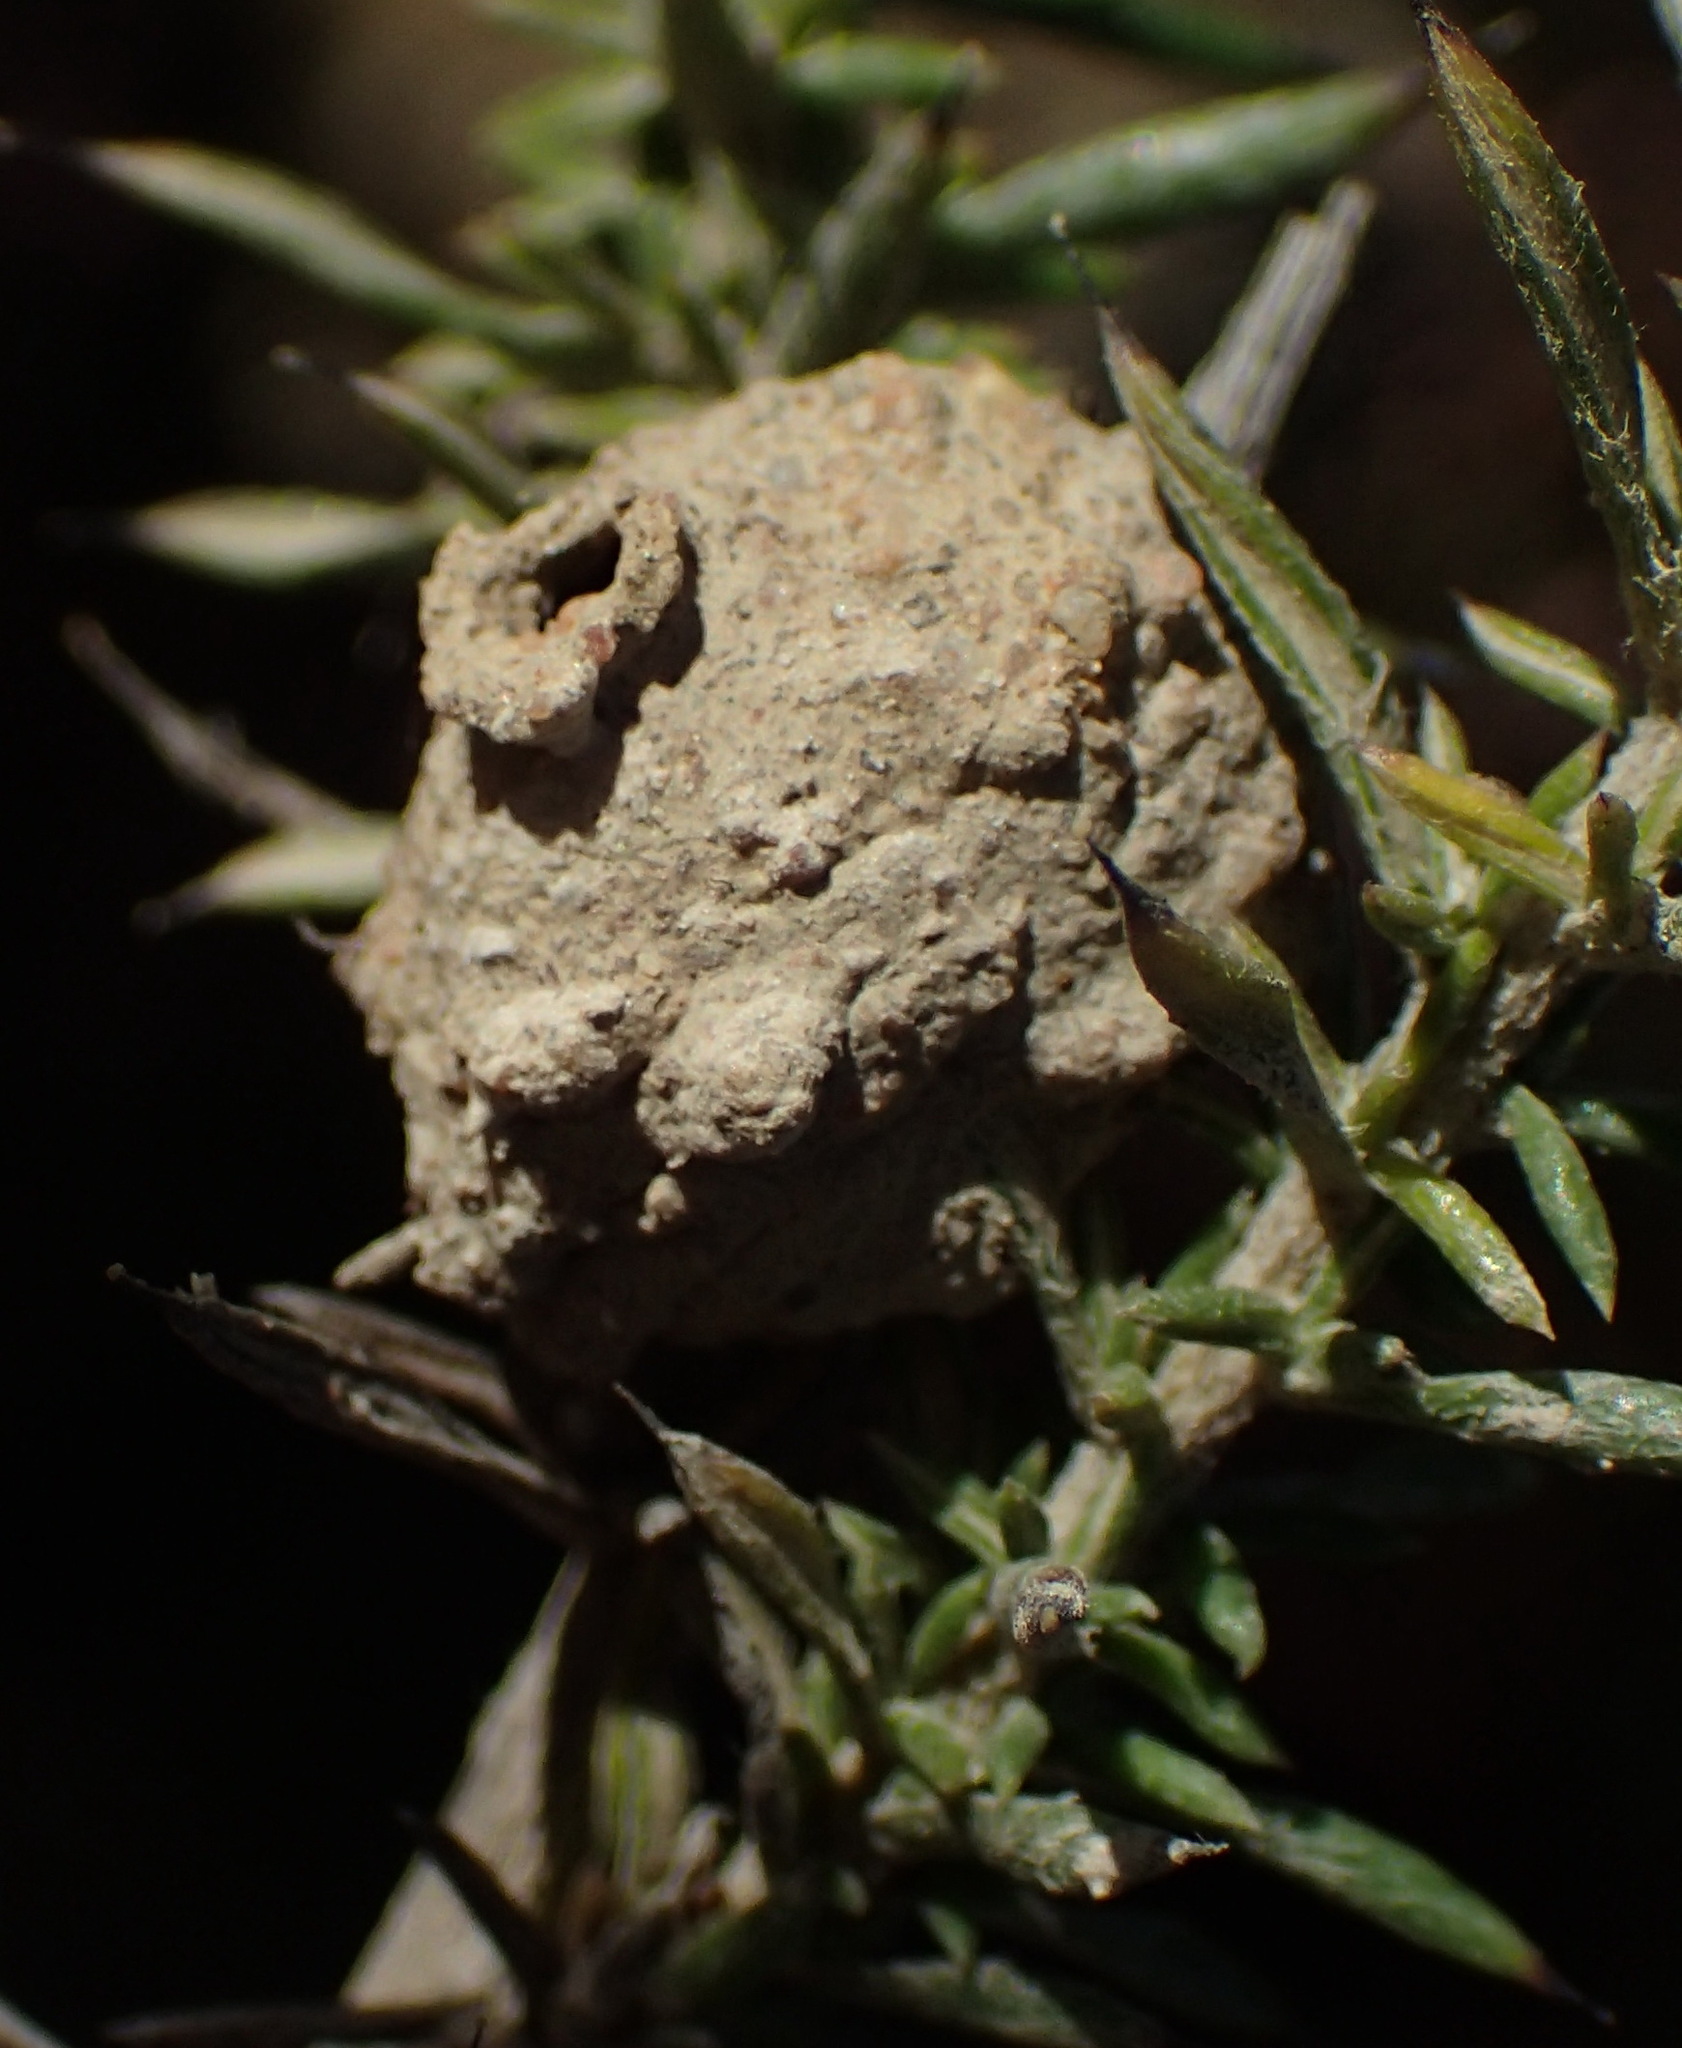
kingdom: Animalia
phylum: Arthropoda
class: Insecta
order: Hymenoptera
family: Eumenidae
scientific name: Eumenidae
